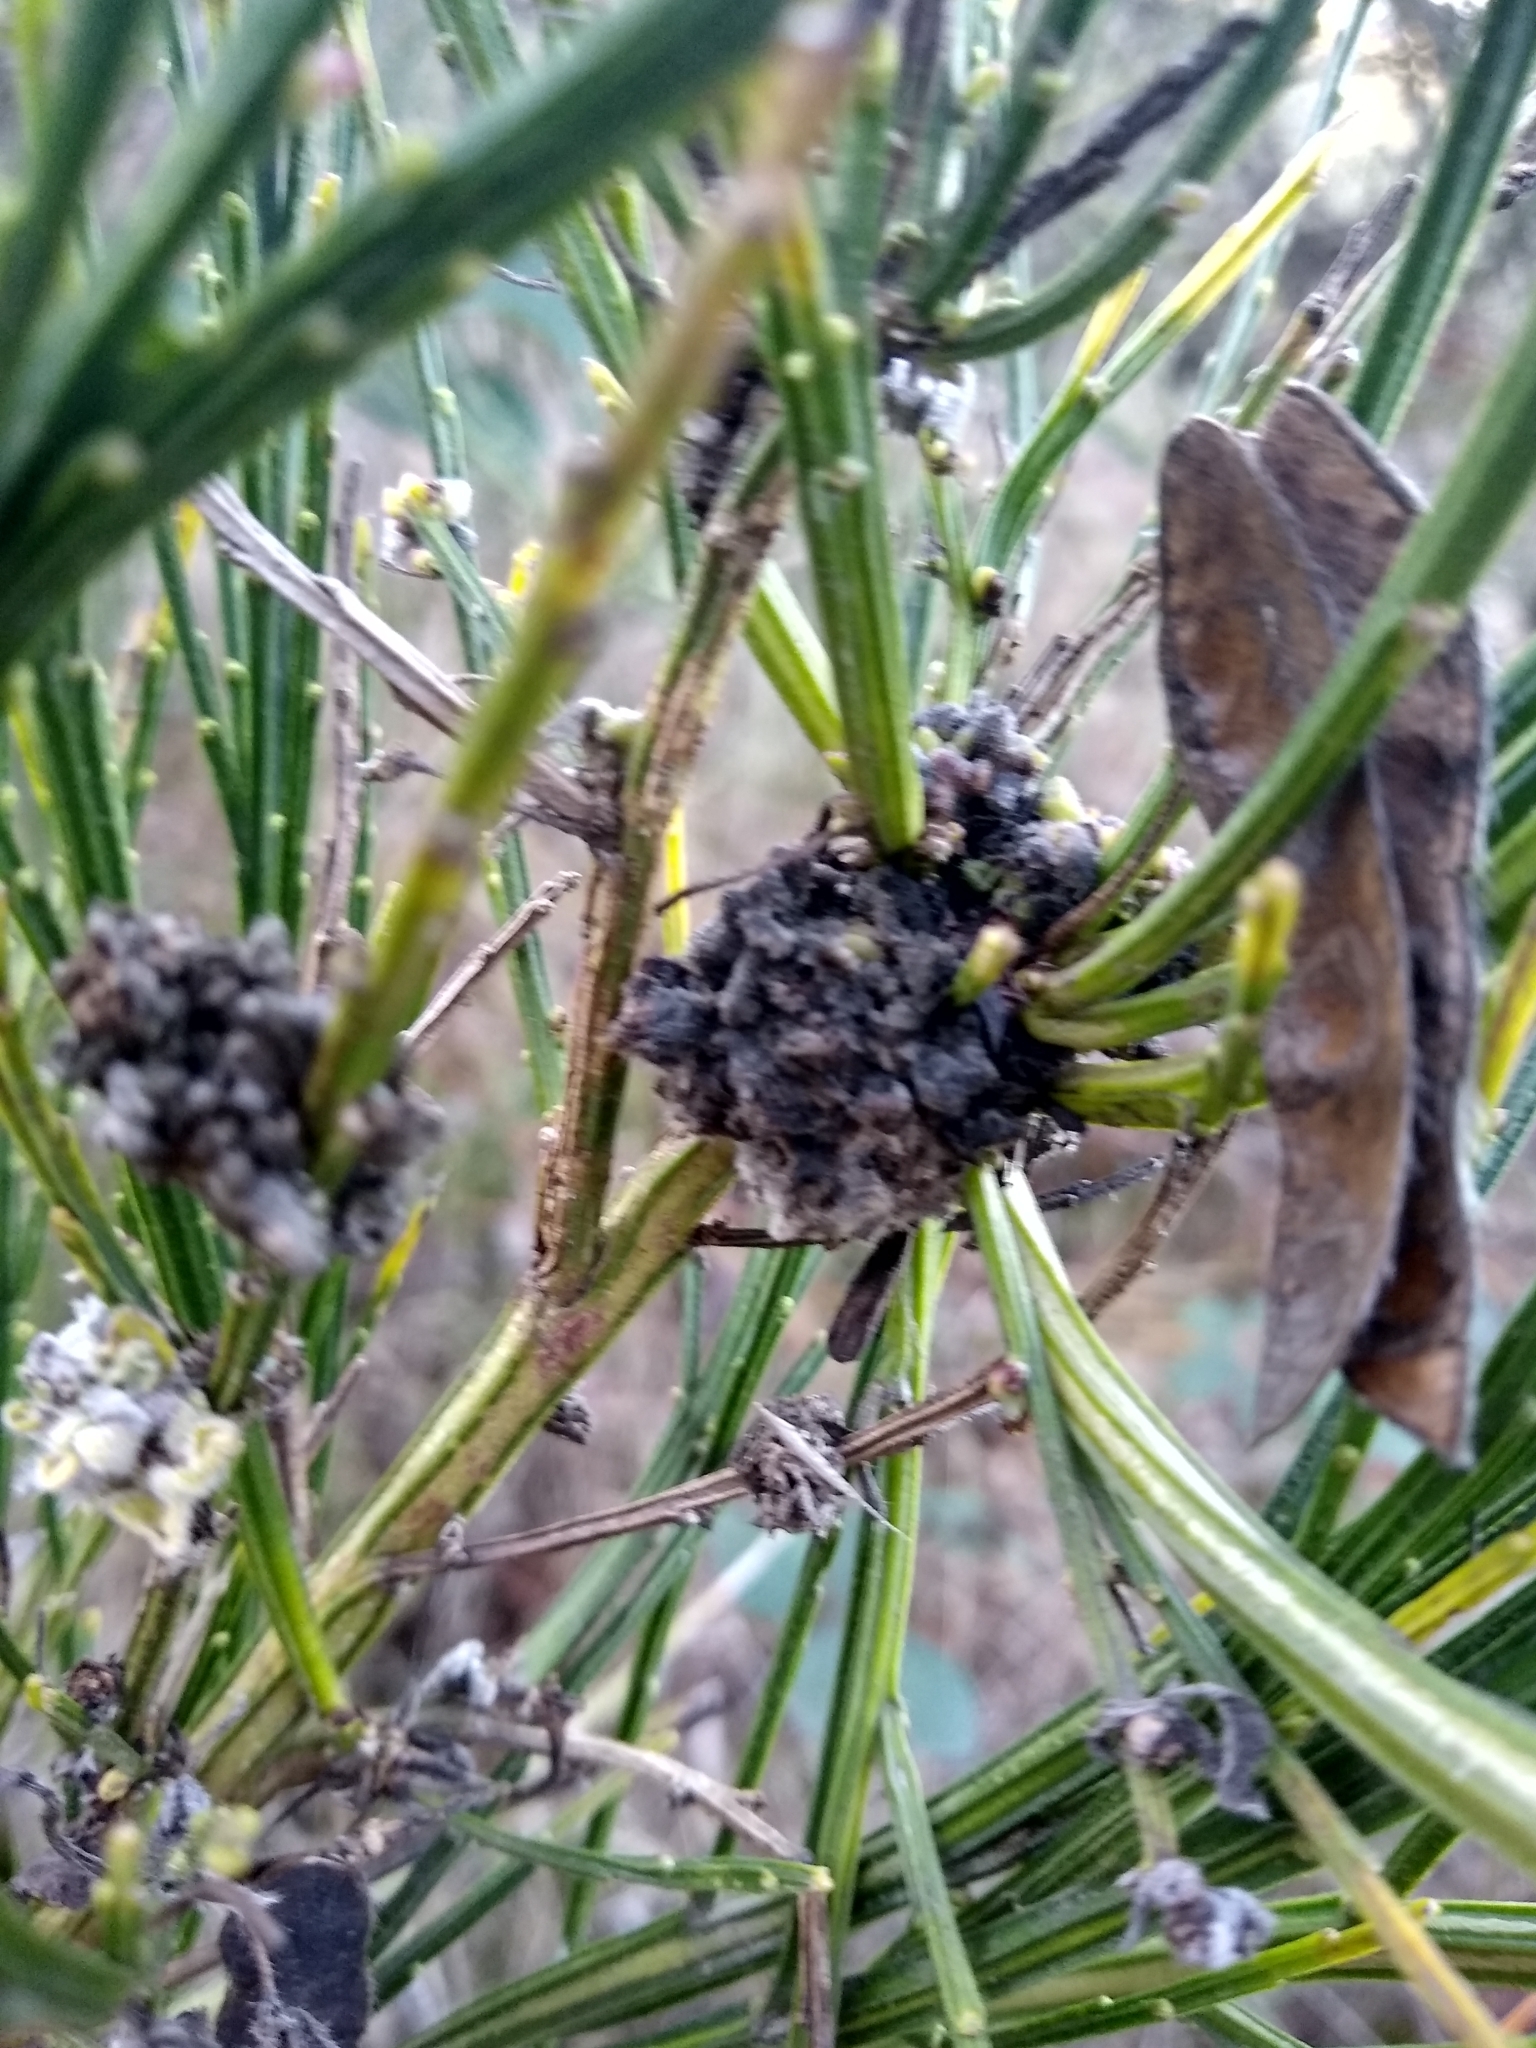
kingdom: Plantae
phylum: Tracheophyta
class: Magnoliopsida
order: Fabales
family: Fabaceae
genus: Cytisus
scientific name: Cytisus scoparius
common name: Scotch broom
